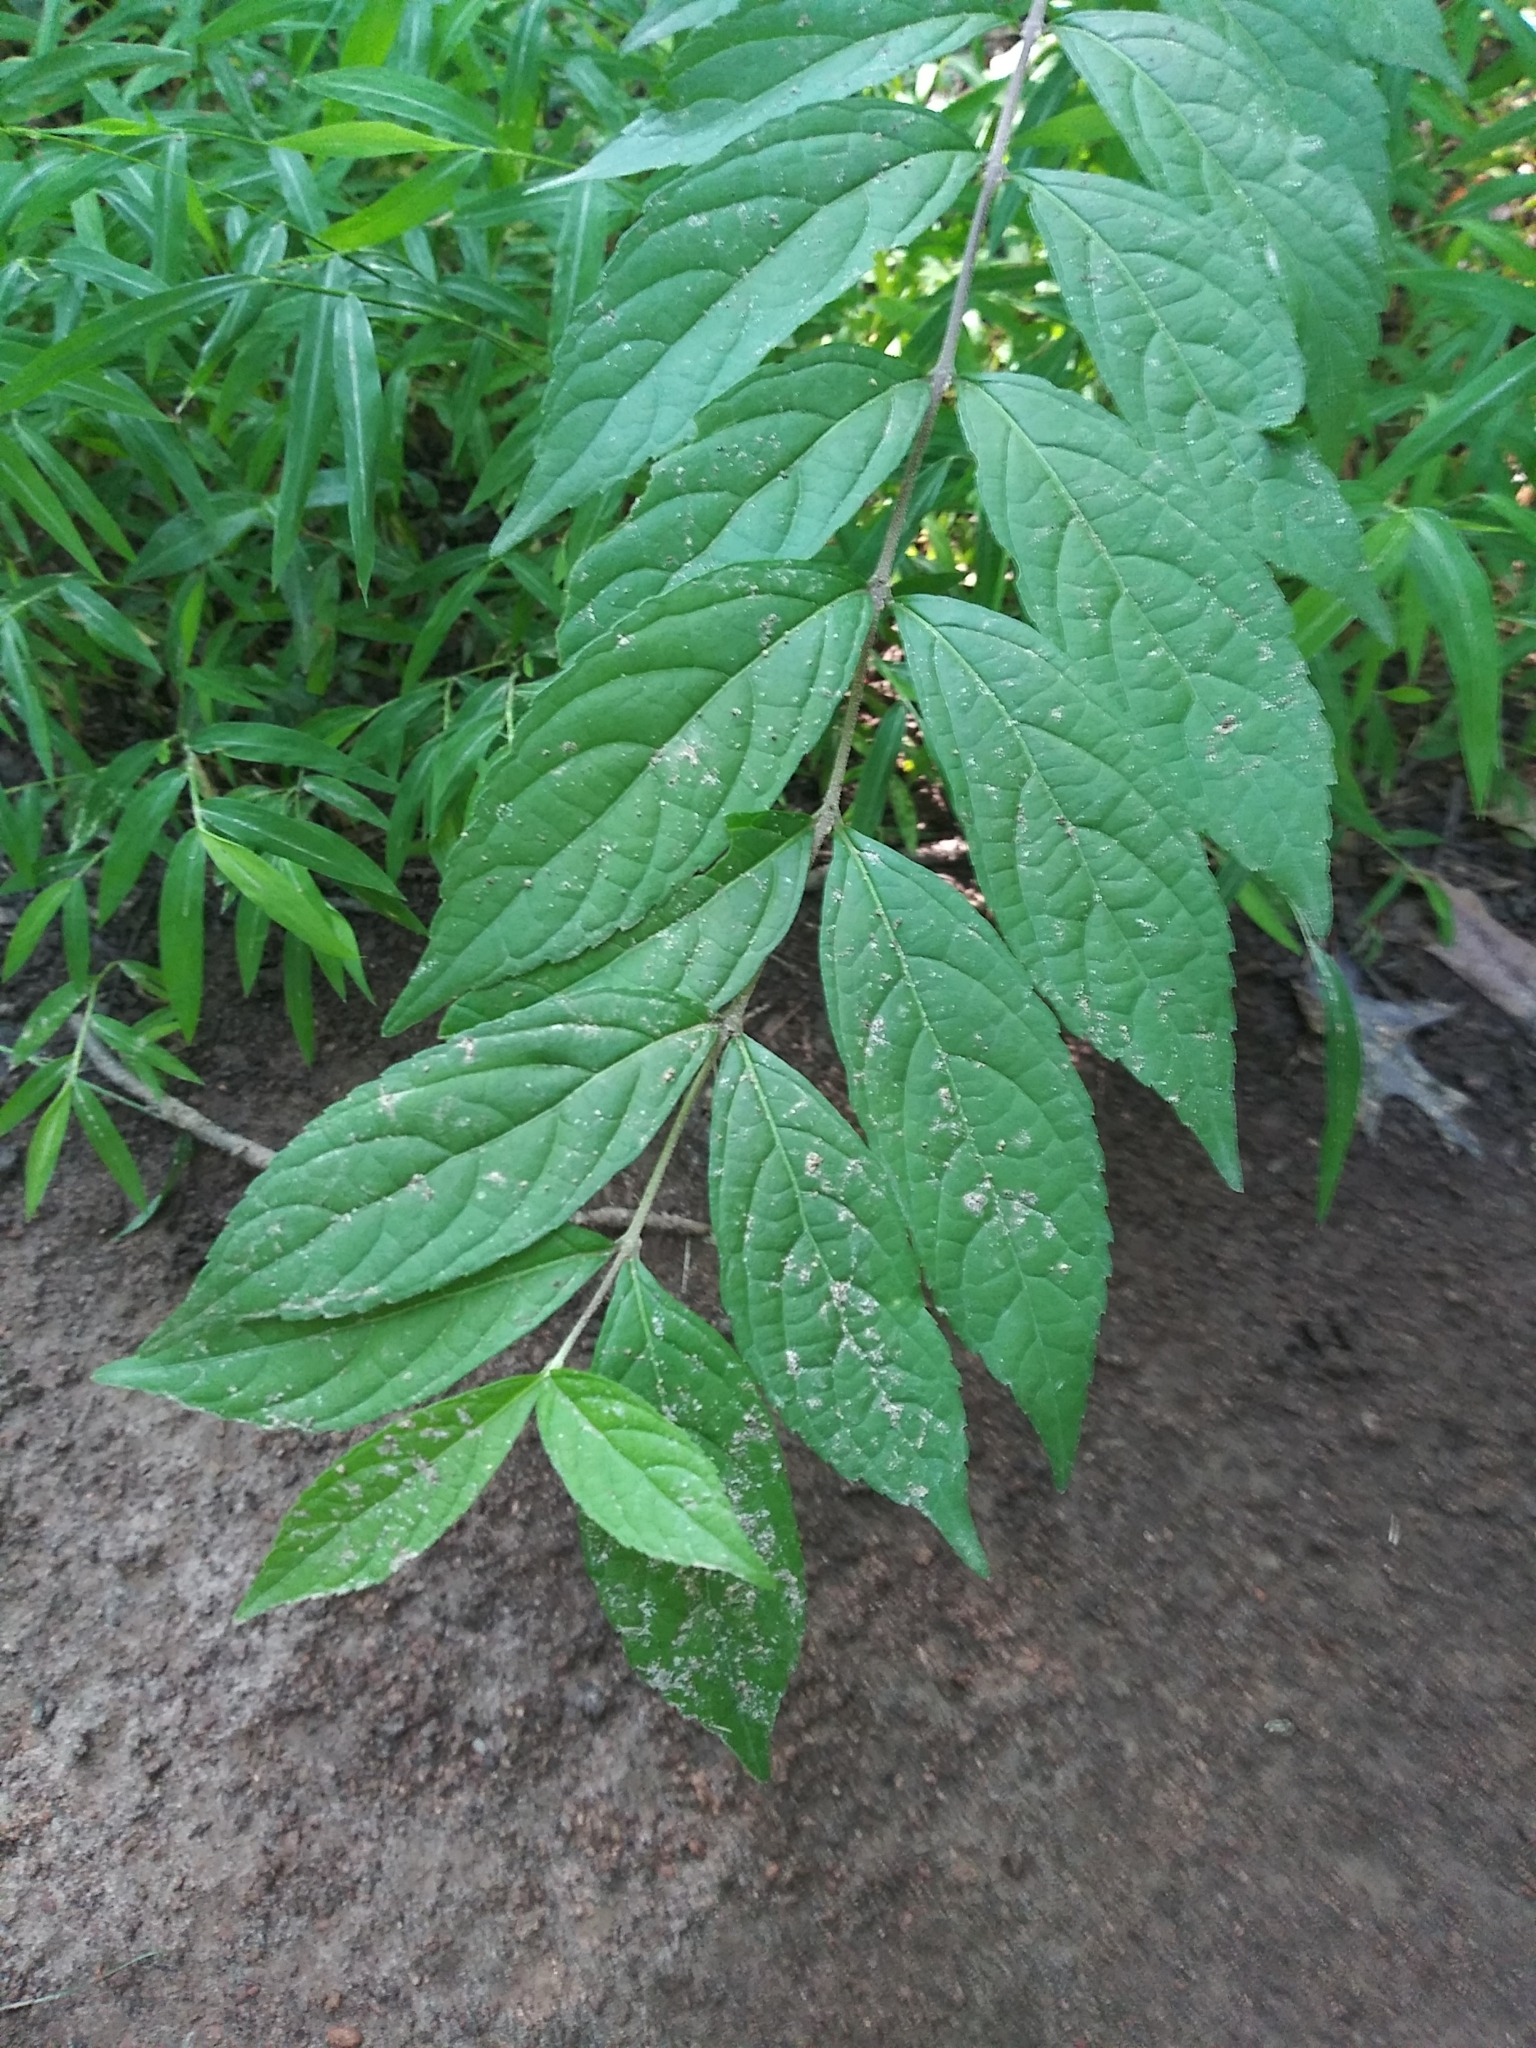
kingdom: Plantae
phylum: Tracheophyta
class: Magnoliopsida
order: Lamiales
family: Lamiaceae
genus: Callicarpa
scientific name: Callicarpa dichotoma
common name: Purple beauty-berry
